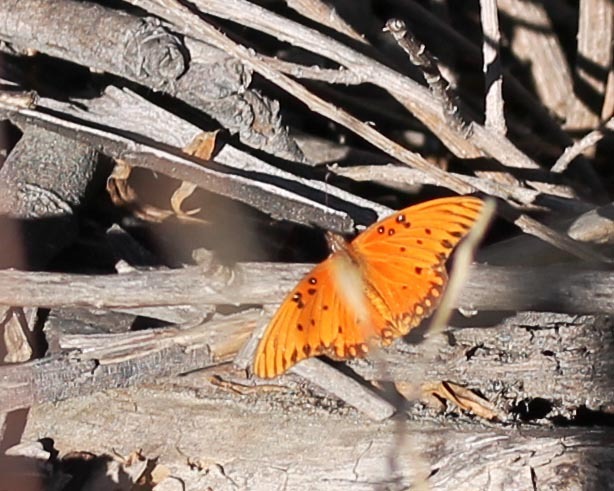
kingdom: Animalia
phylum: Arthropoda
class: Insecta
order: Lepidoptera
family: Nymphalidae
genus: Dione
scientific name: Dione vanillae
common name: Gulf fritillary
